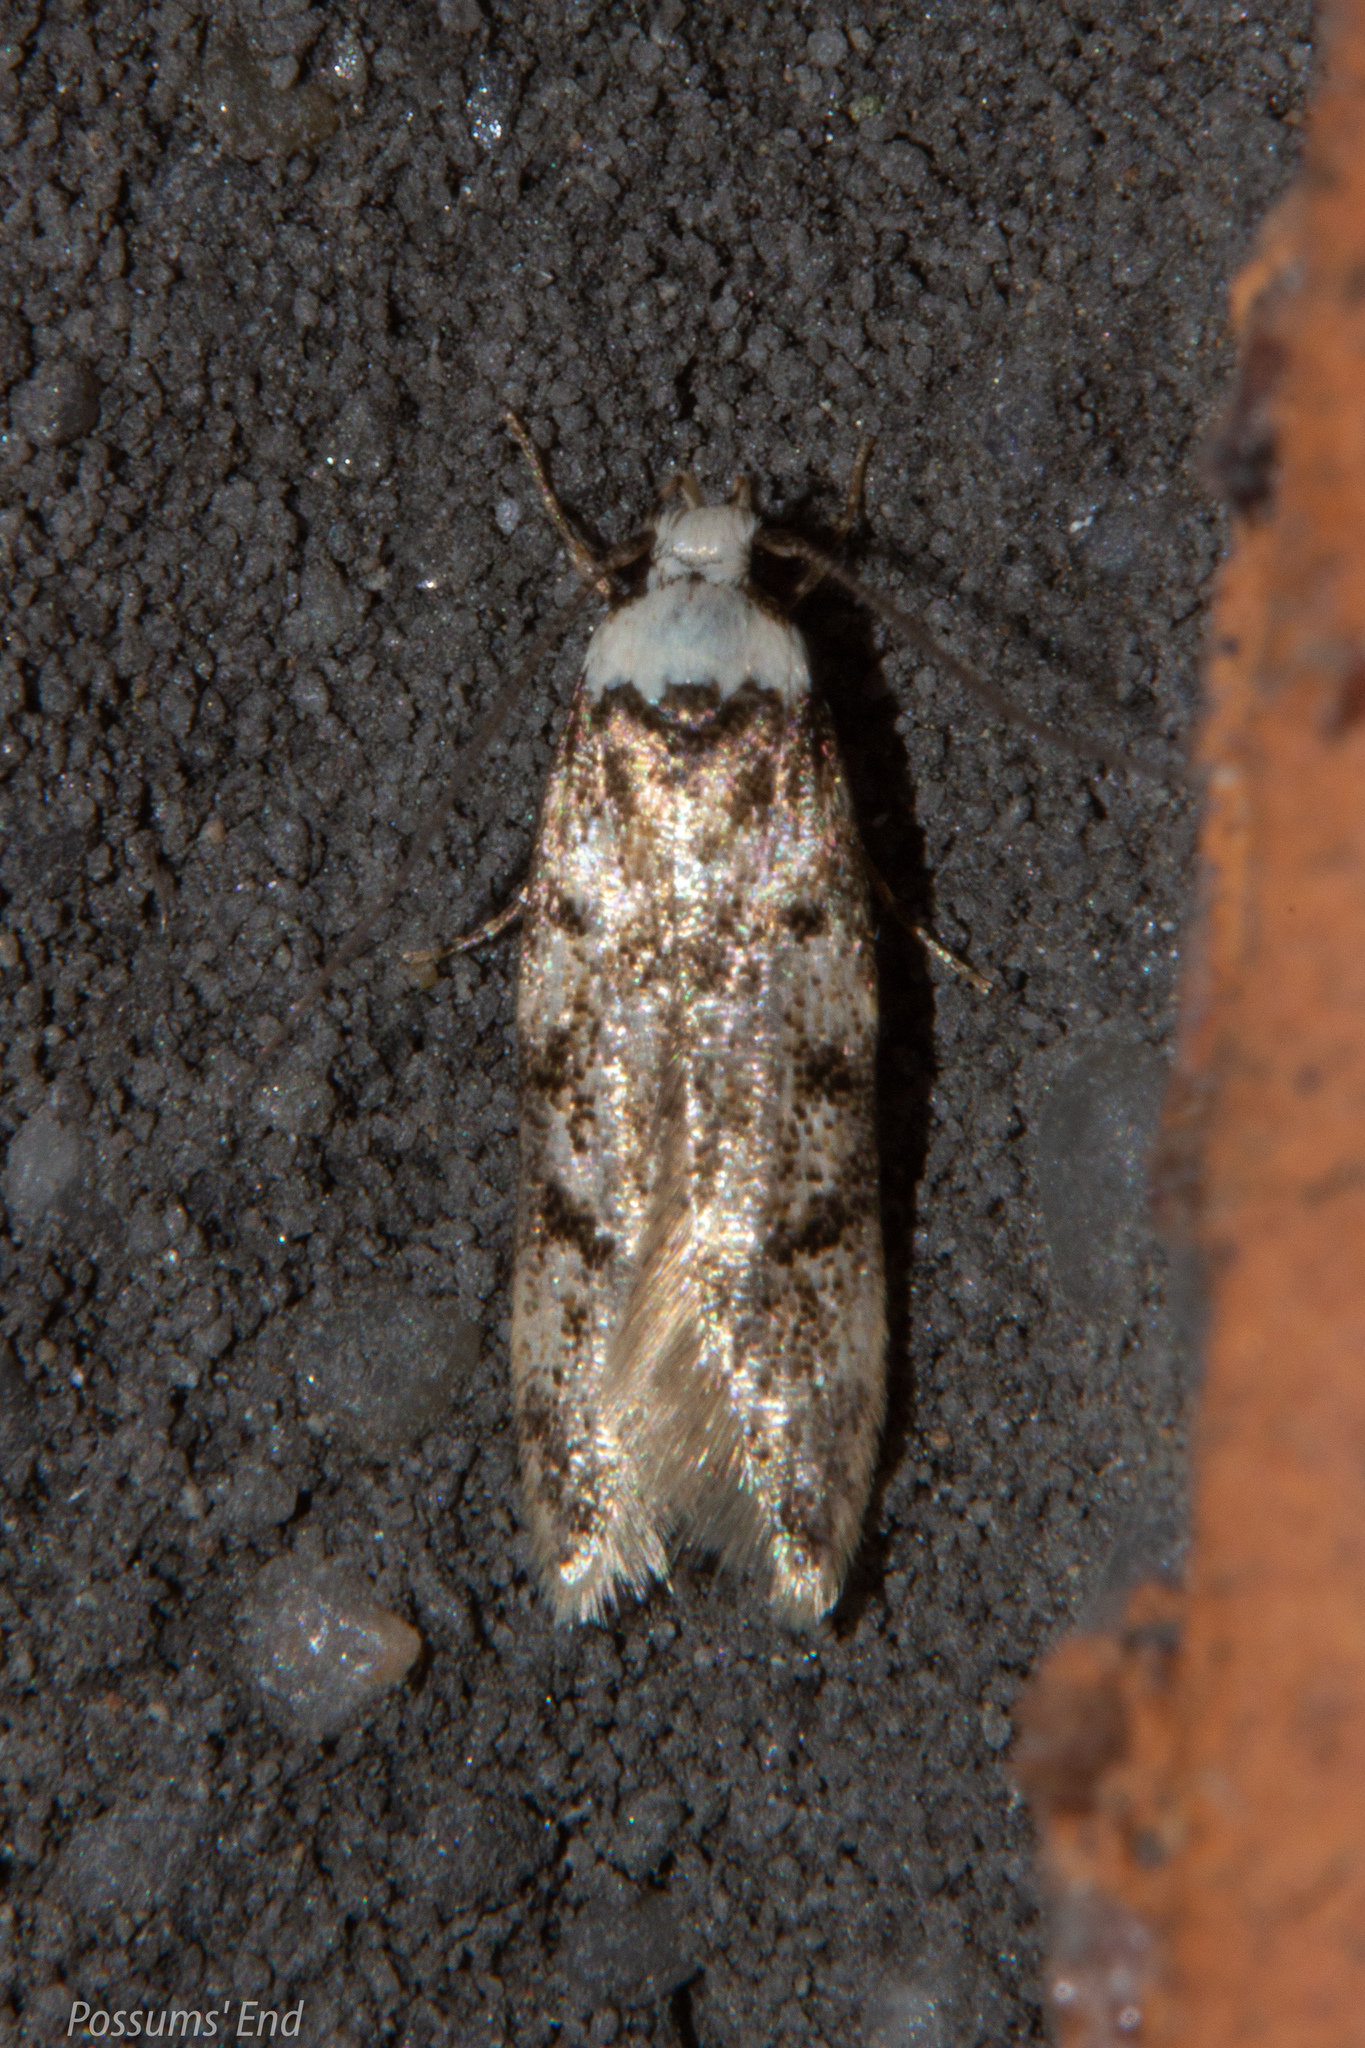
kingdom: Animalia
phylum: Arthropoda
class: Insecta
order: Lepidoptera
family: Oecophoridae
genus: Endrosis
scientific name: Endrosis sarcitrella
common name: White-shouldered house moth
